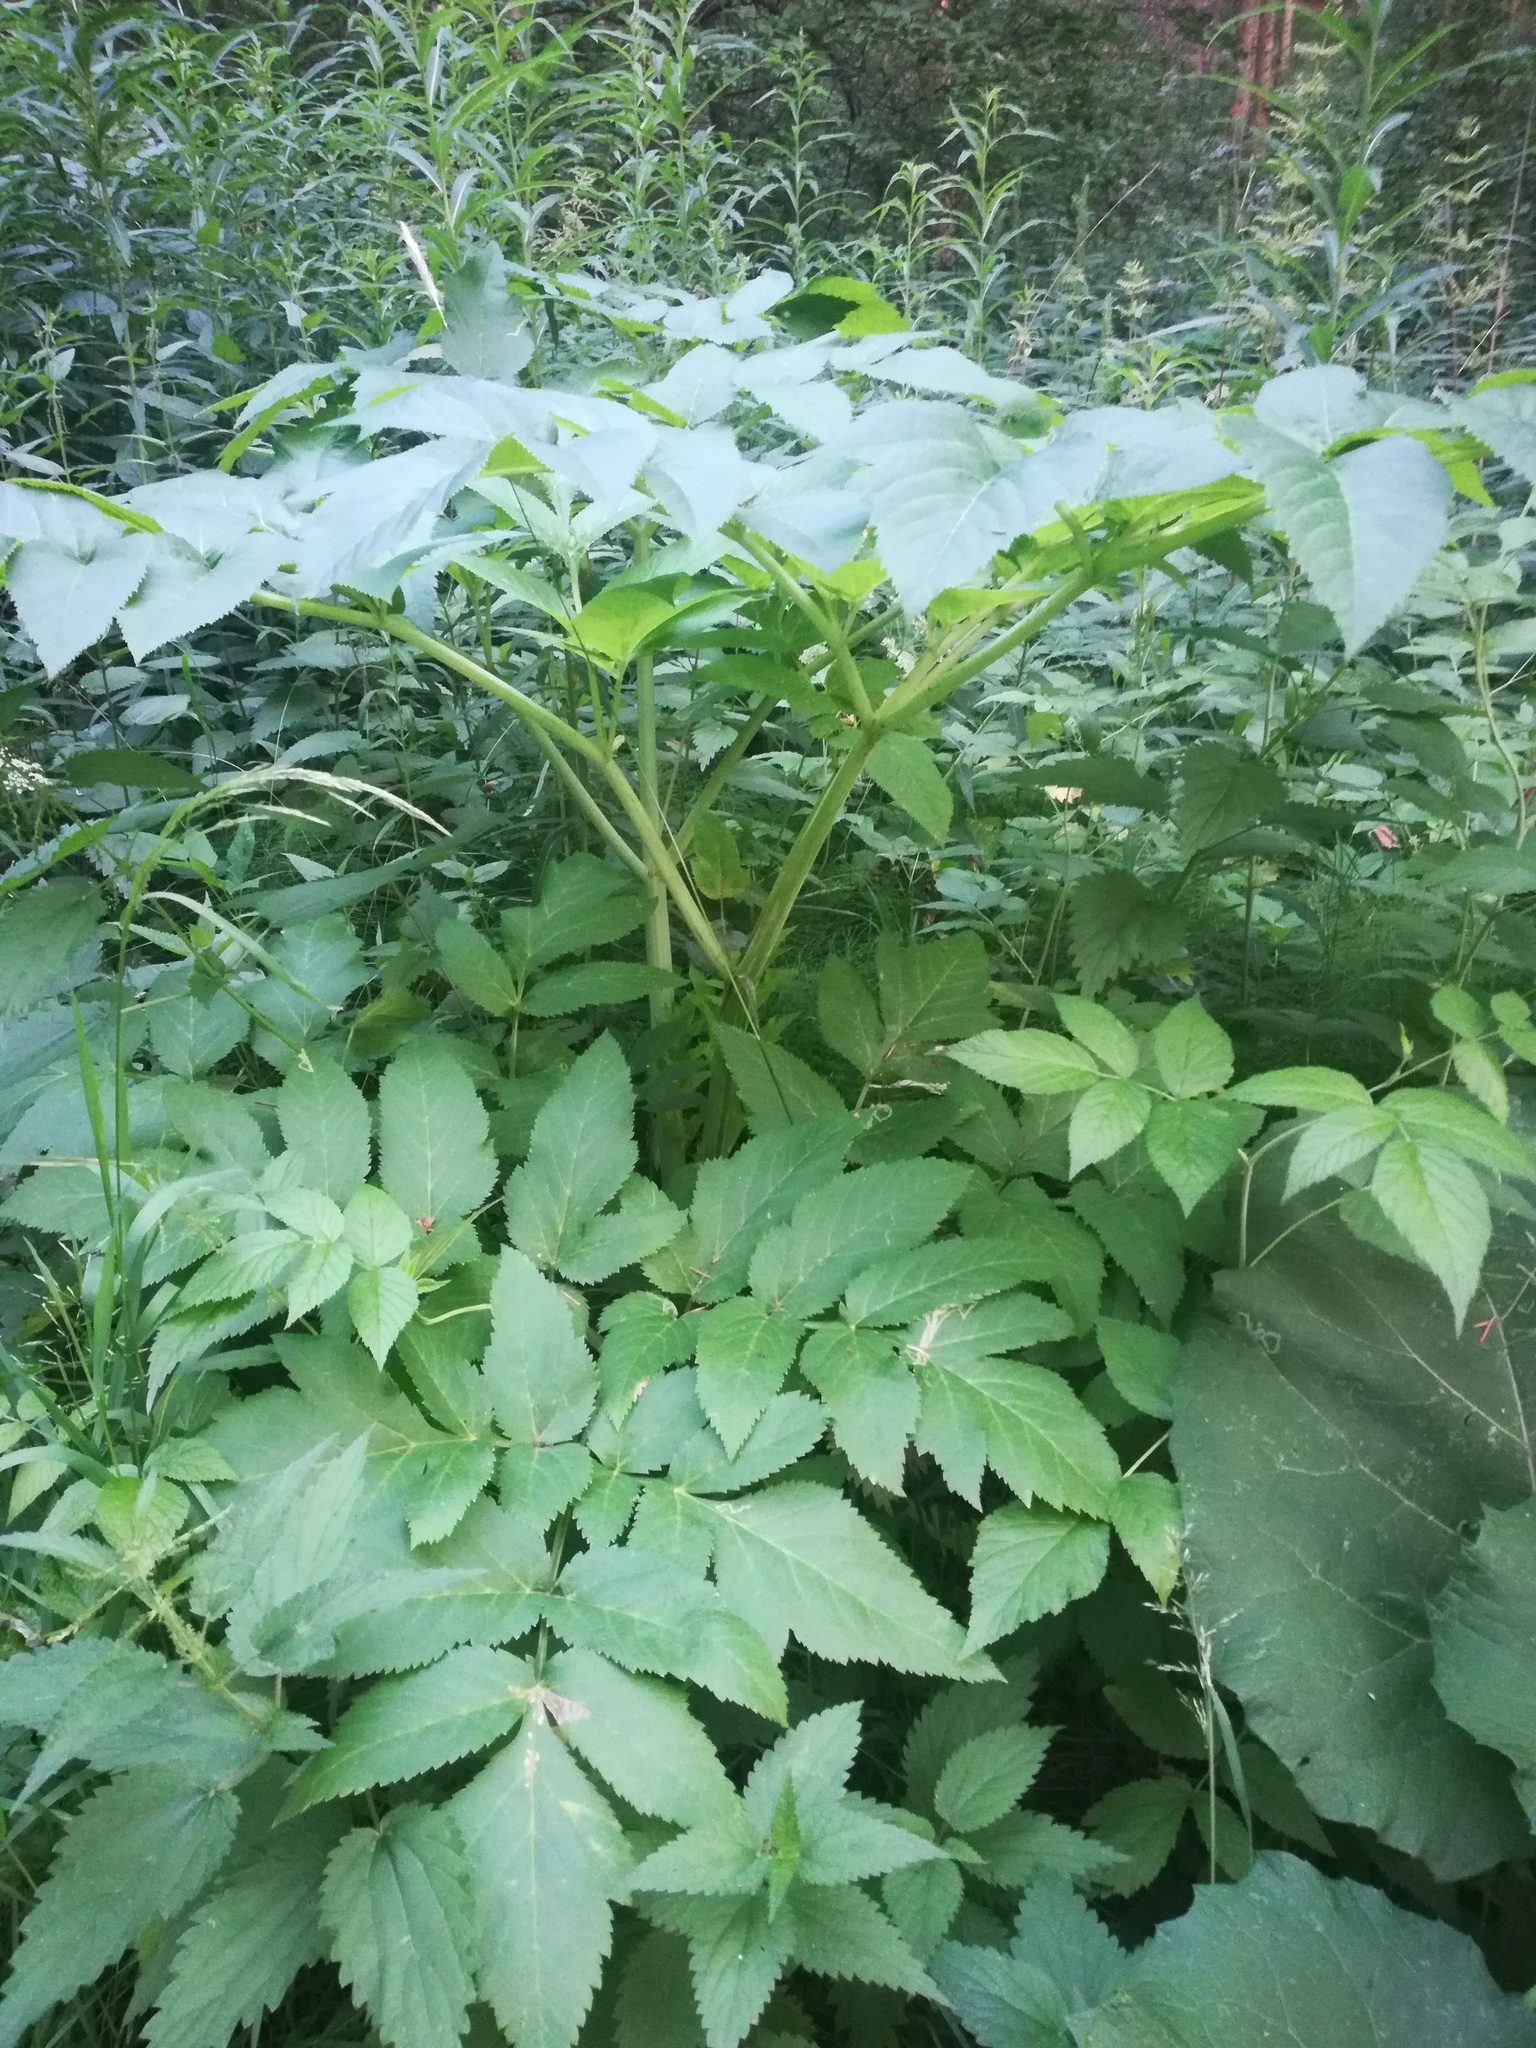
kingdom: Plantae
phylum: Tracheophyta
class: Magnoliopsida
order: Apiales
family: Apiaceae
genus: Angelica
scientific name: Angelica archangelica
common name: Garden angelica
